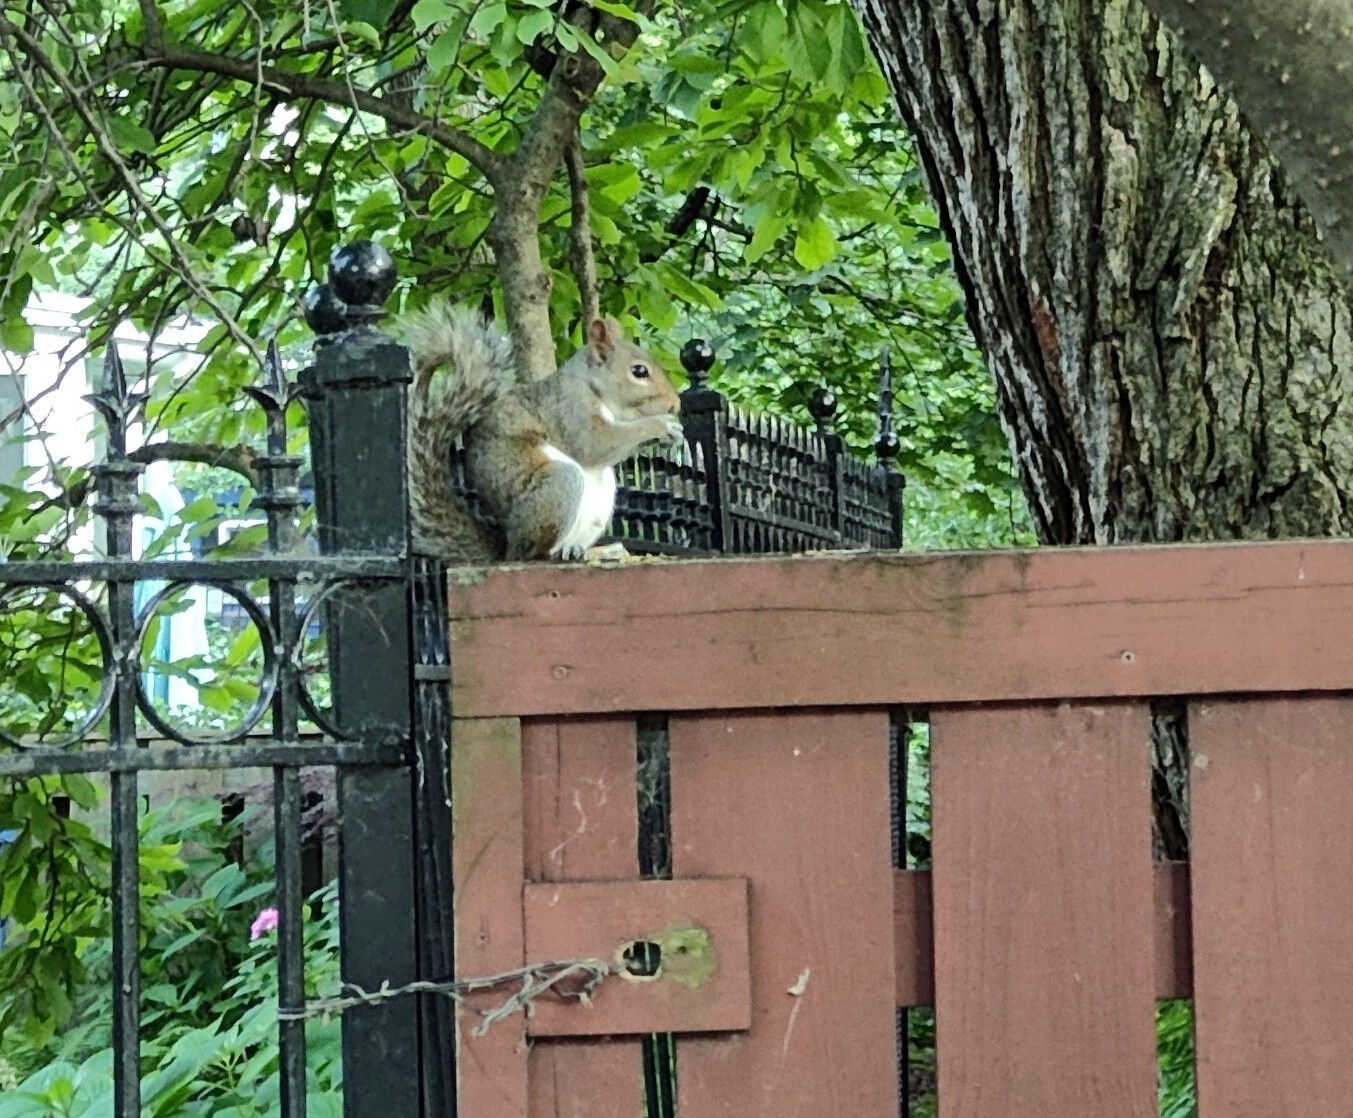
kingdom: Animalia
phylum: Chordata
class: Mammalia
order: Rodentia
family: Sciuridae
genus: Sciurus
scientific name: Sciurus carolinensis
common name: Eastern gray squirrel
